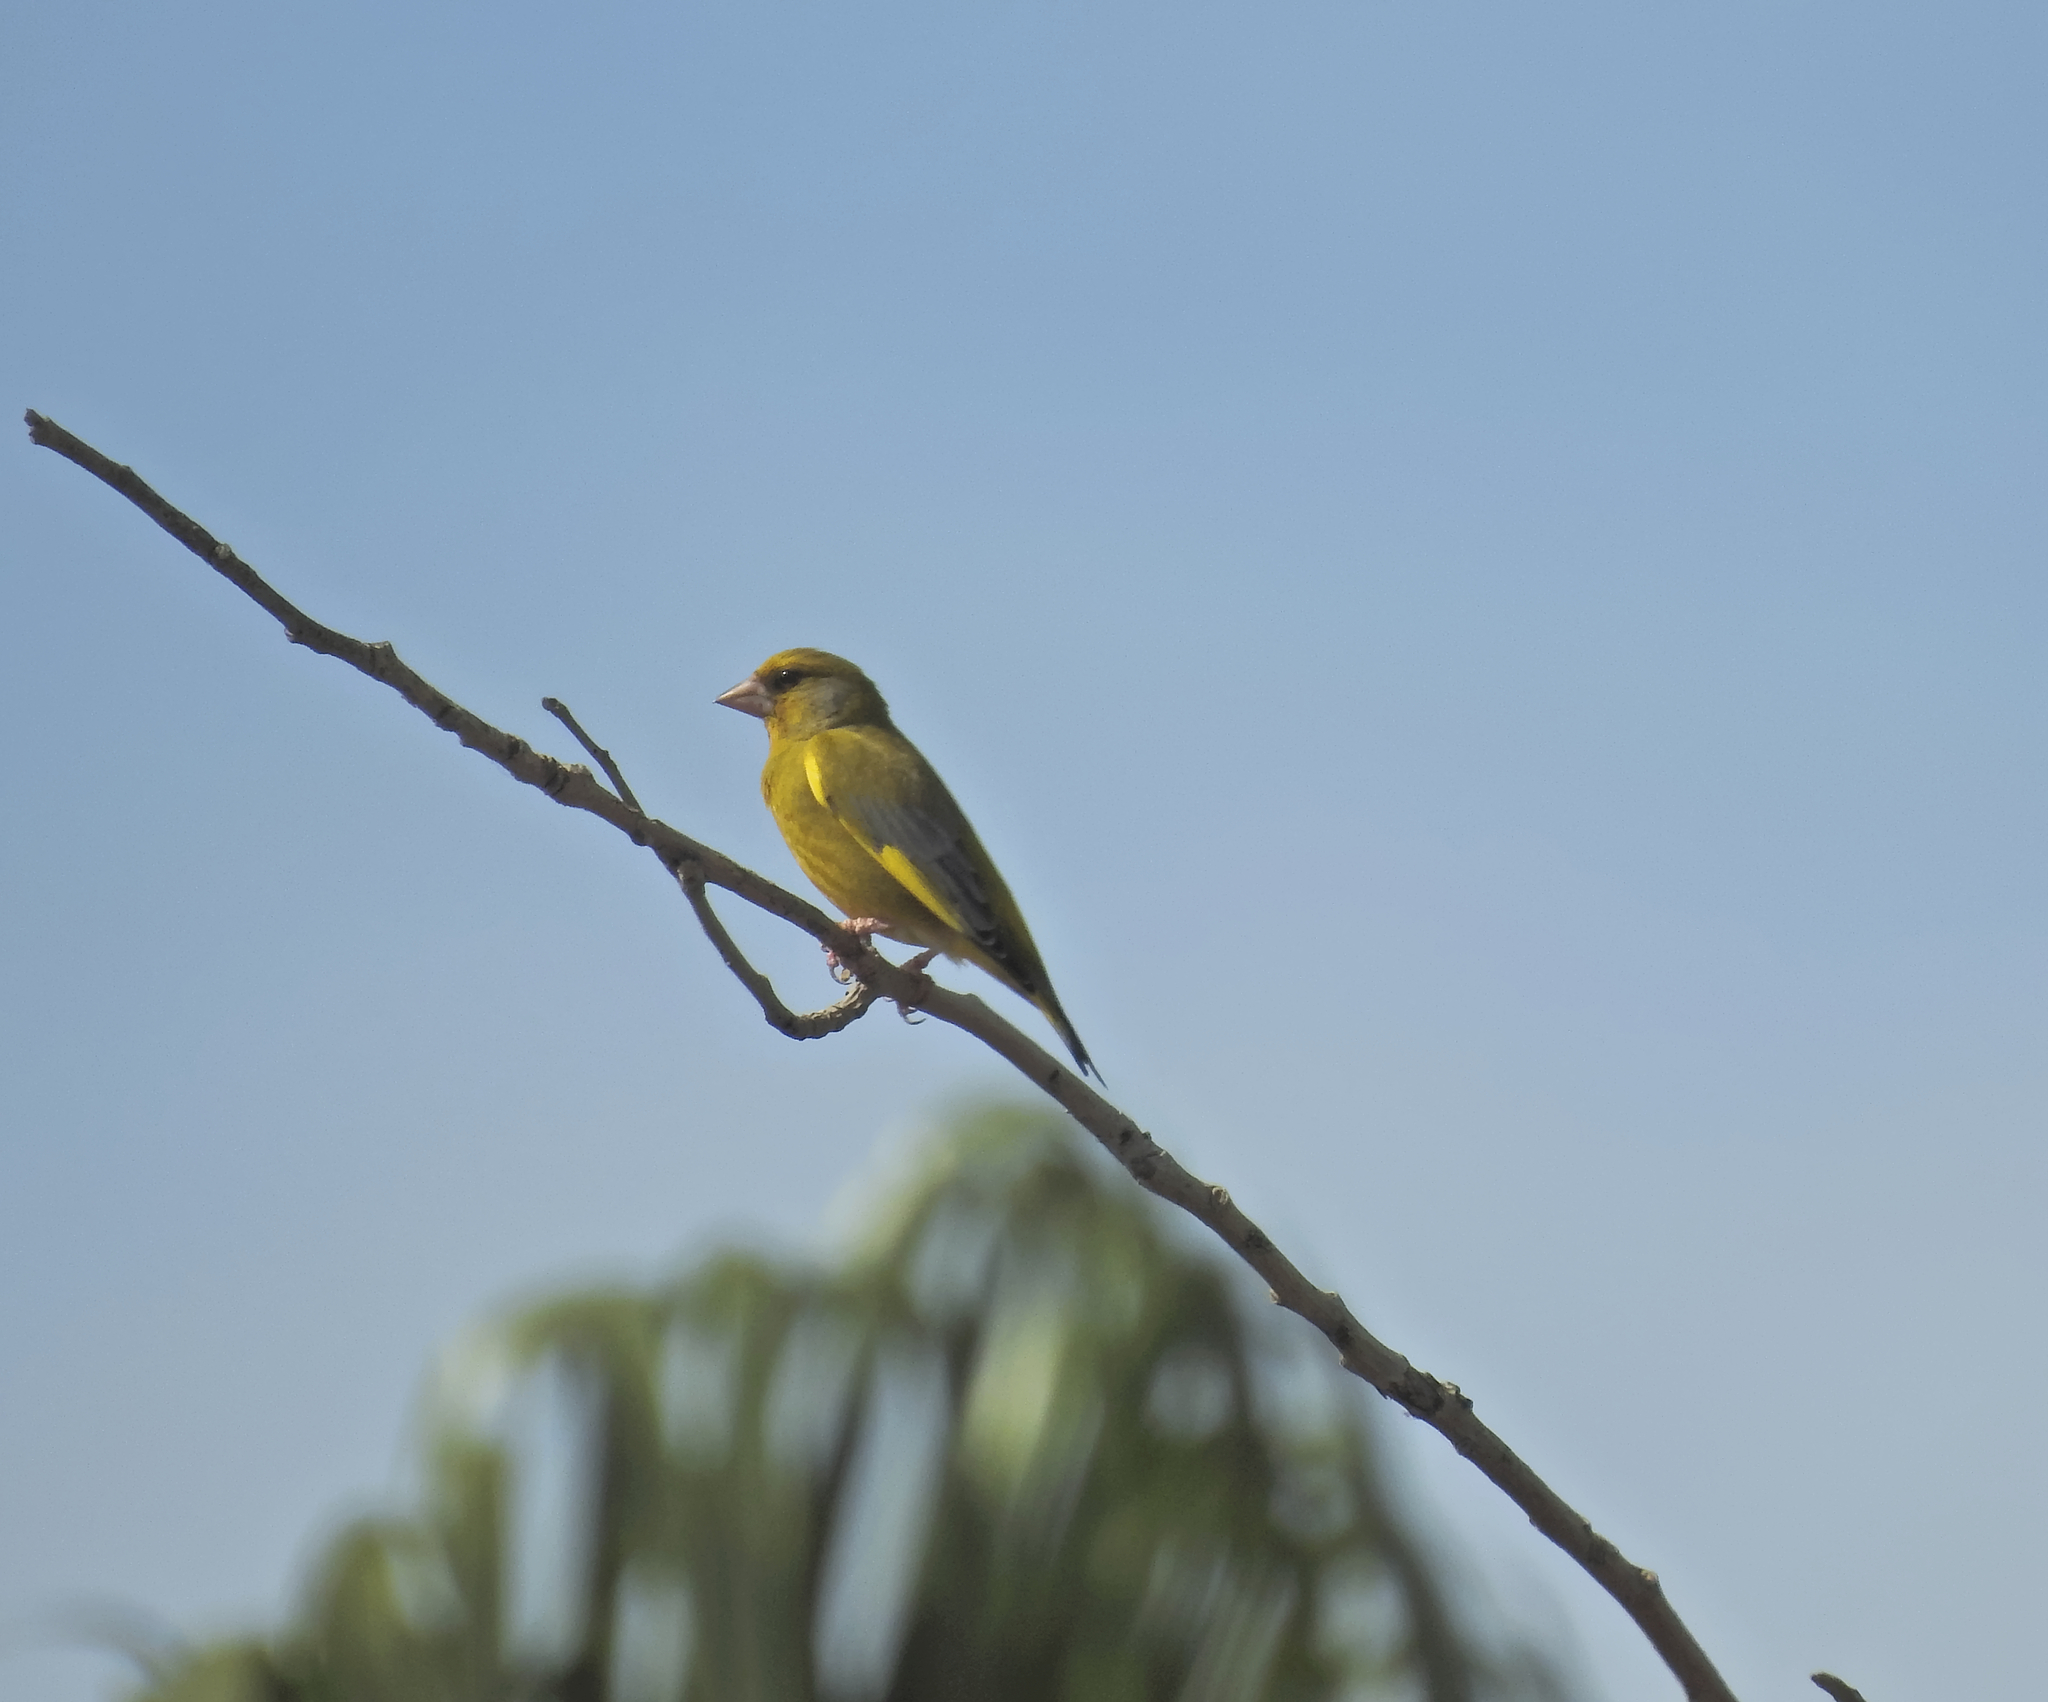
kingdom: Plantae
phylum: Tracheophyta
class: Liliopsida
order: Poales
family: Poaceae
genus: Chloris
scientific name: Chloris chloris
